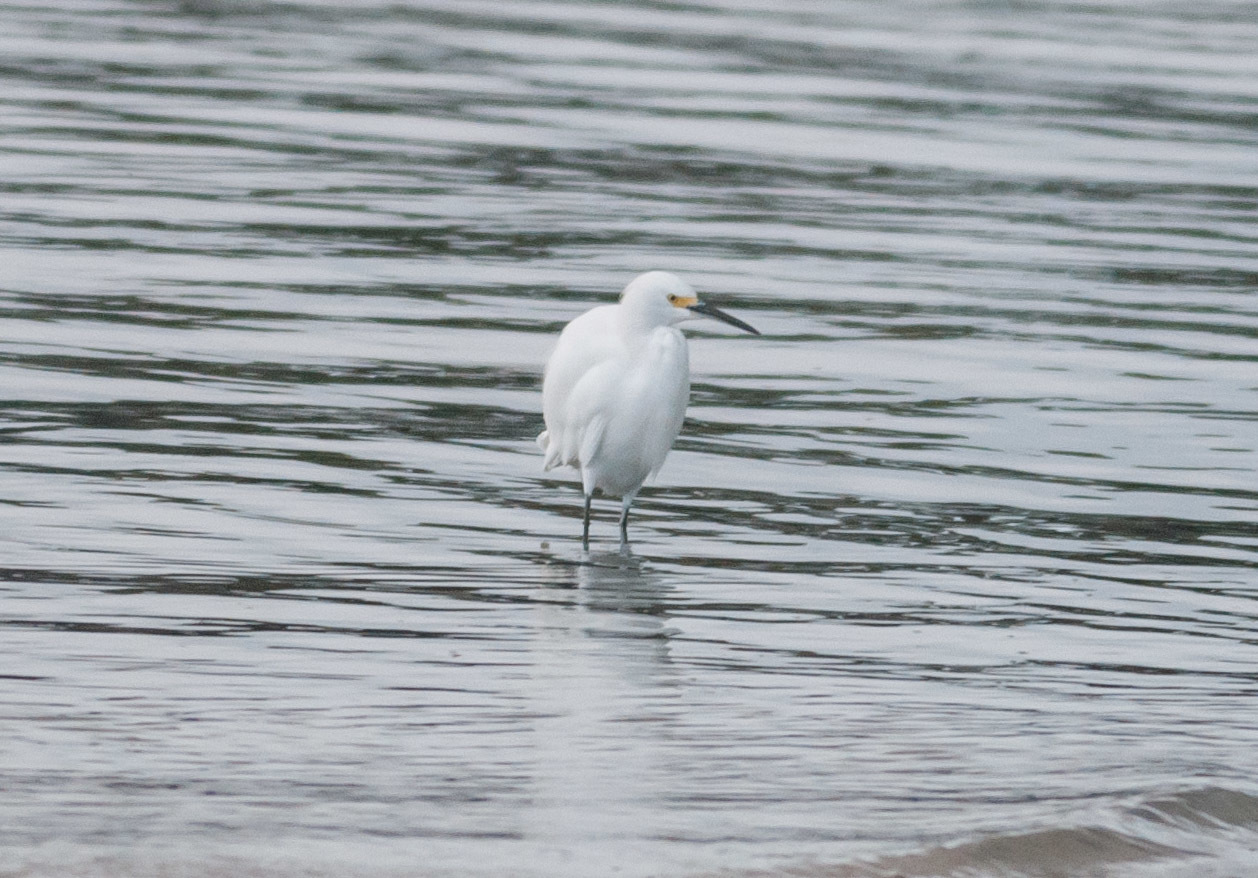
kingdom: Animalia
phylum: Chordata
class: Aves
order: Pelecaniformes
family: Ardeidae
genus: Egretta
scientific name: Egretta thula
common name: Snowy egret
